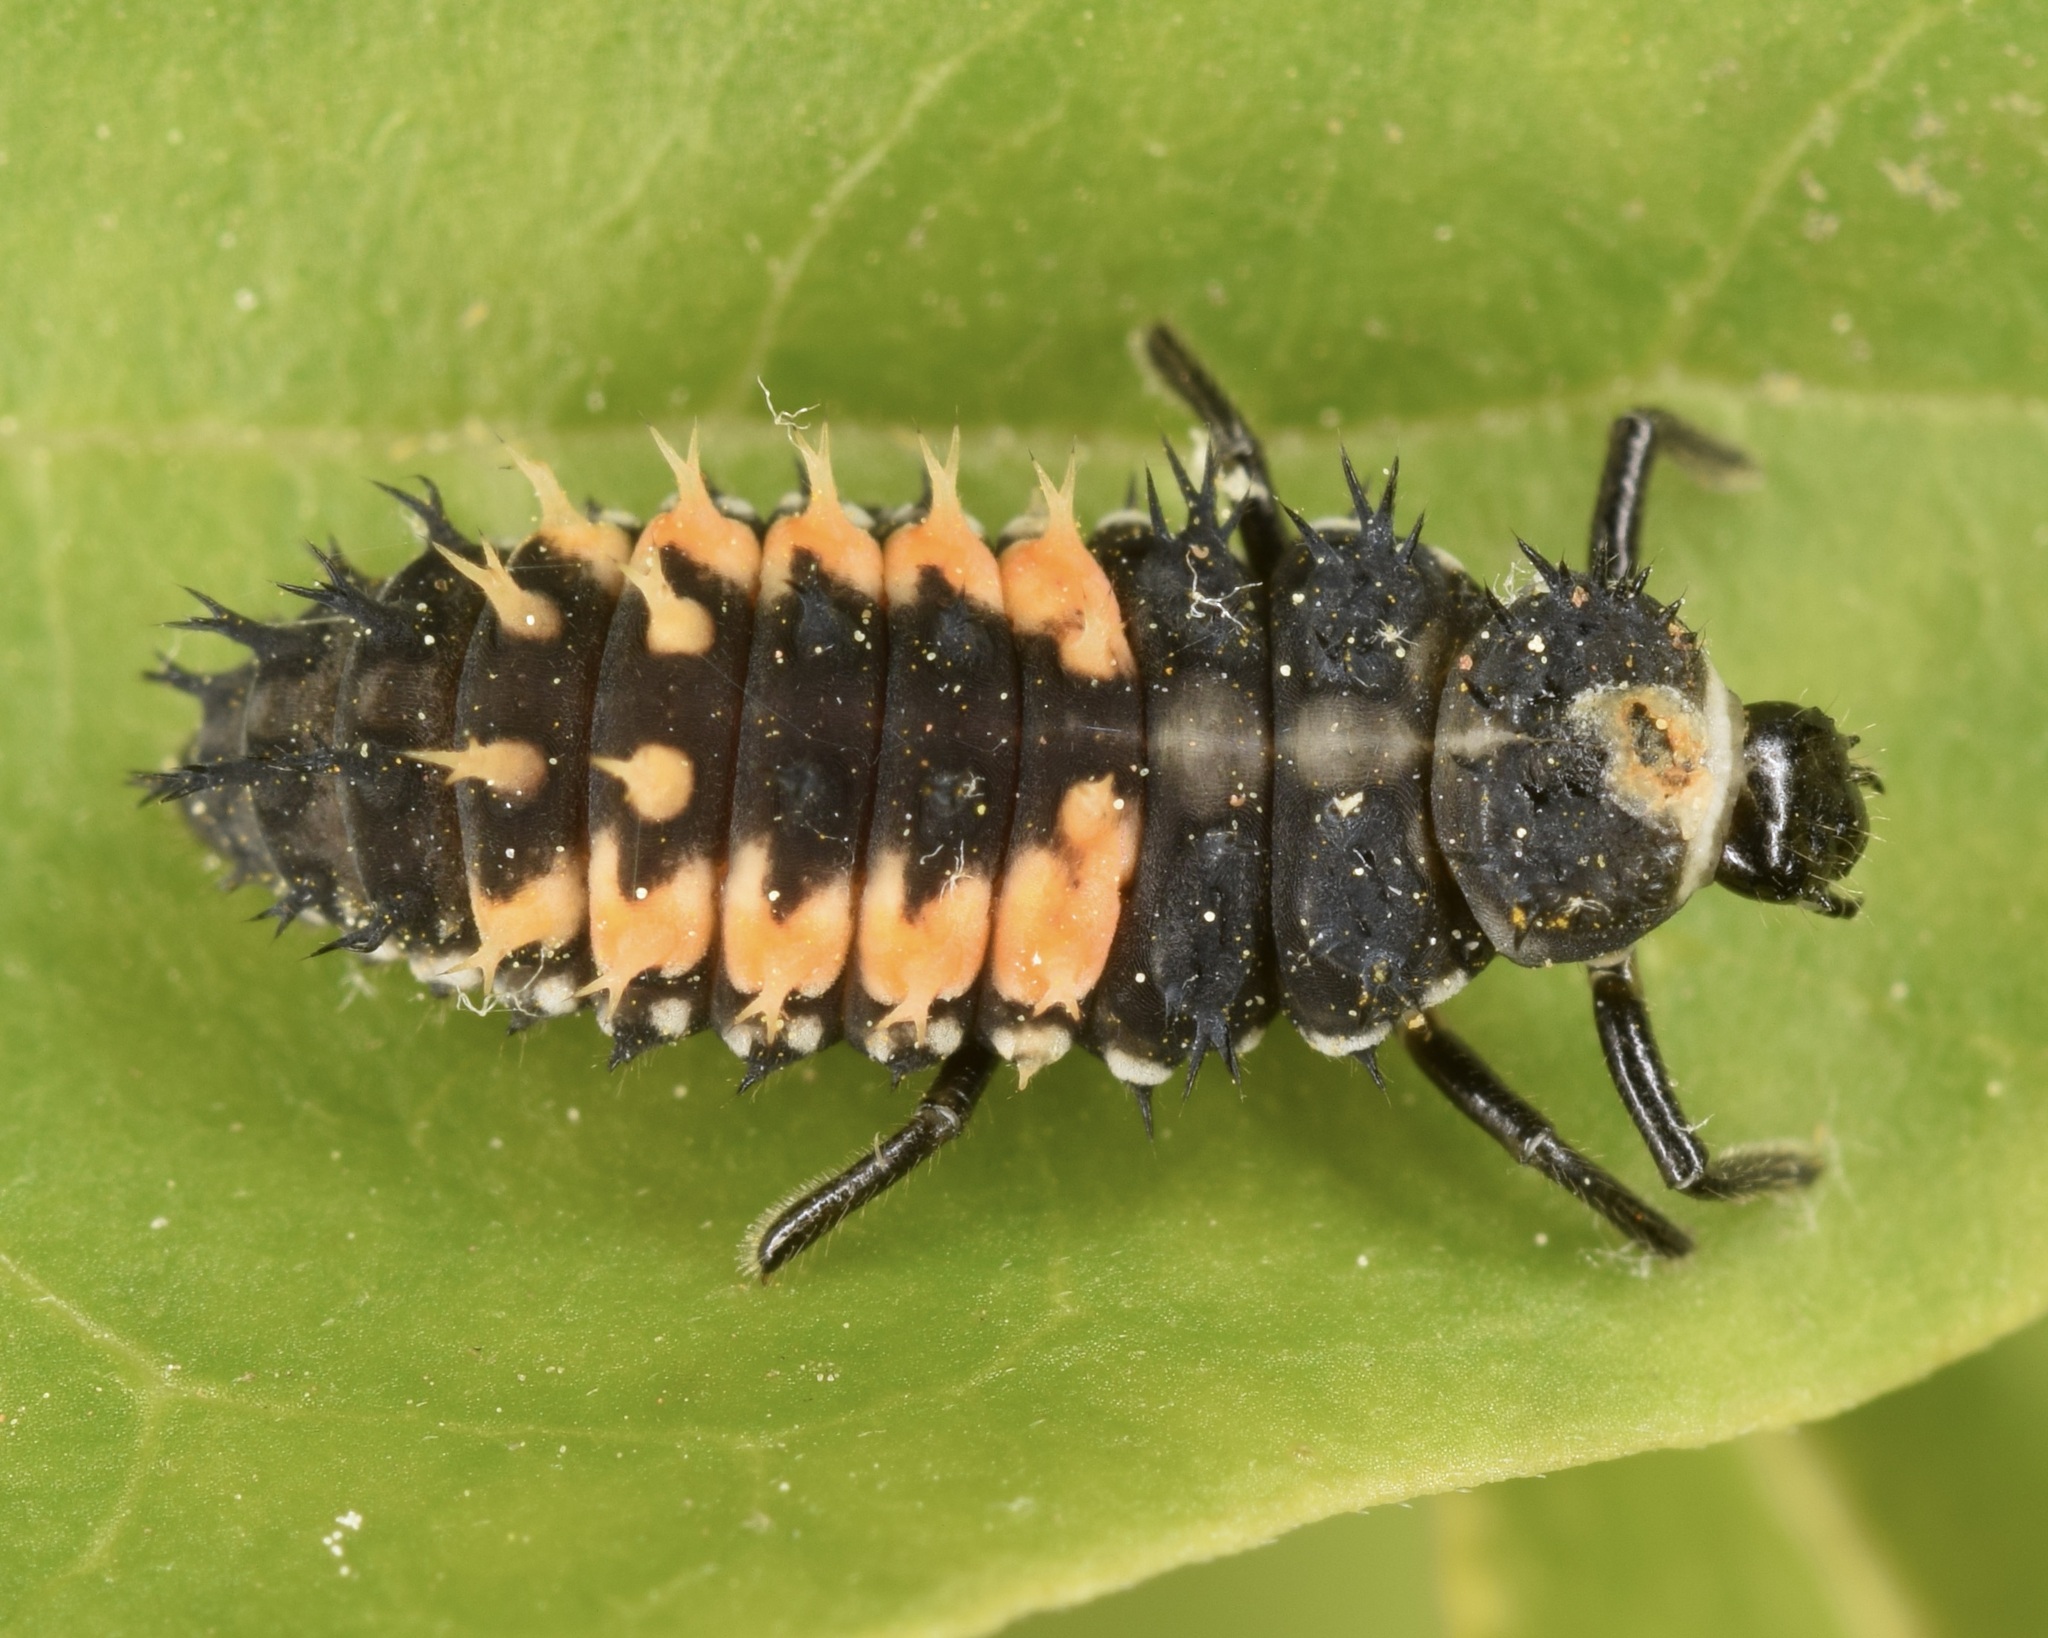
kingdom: Animalia
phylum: Arthropoda
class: Insecta
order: Coleoptera
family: Coccinellidae
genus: Harmonia
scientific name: Harmonia axyridis
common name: Harlequin ladybird
